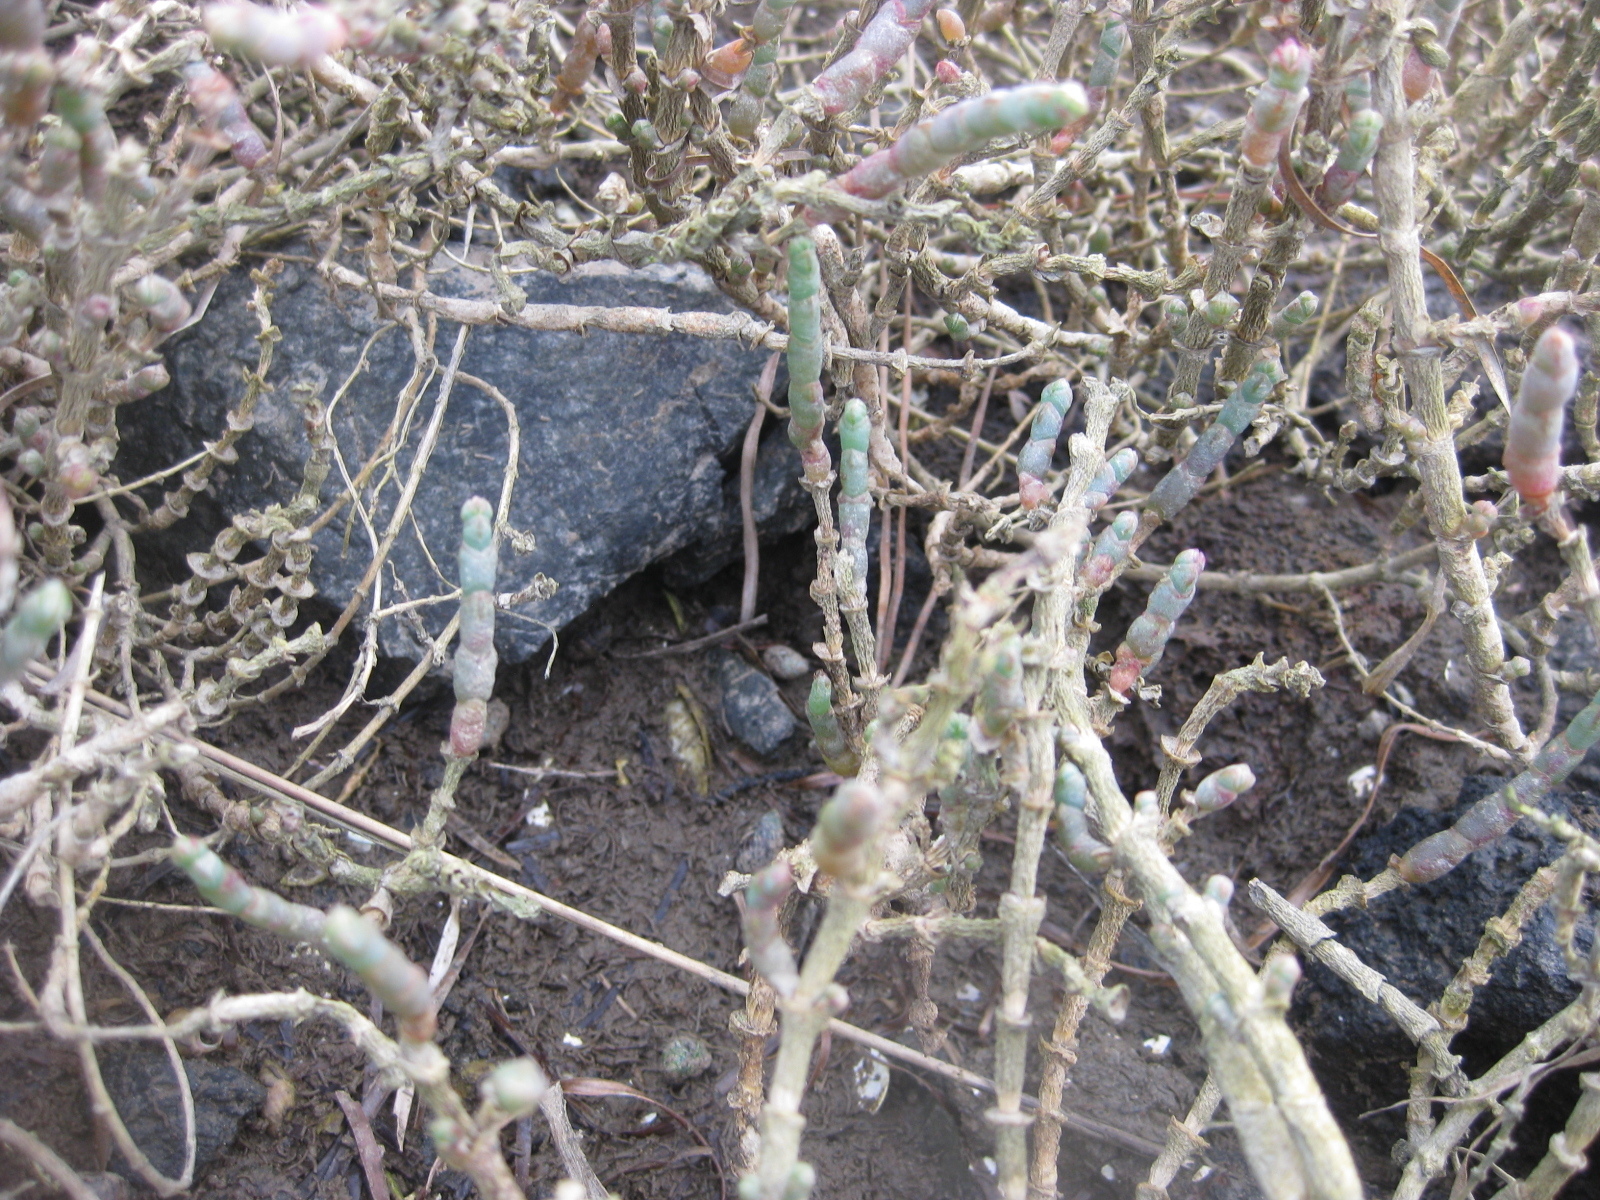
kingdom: Plantae
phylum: Tracheophyta
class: Magnoliopsida
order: Caryophyllales
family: Amaranthaceae
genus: Salicornia
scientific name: Salicornia quinqueflora
